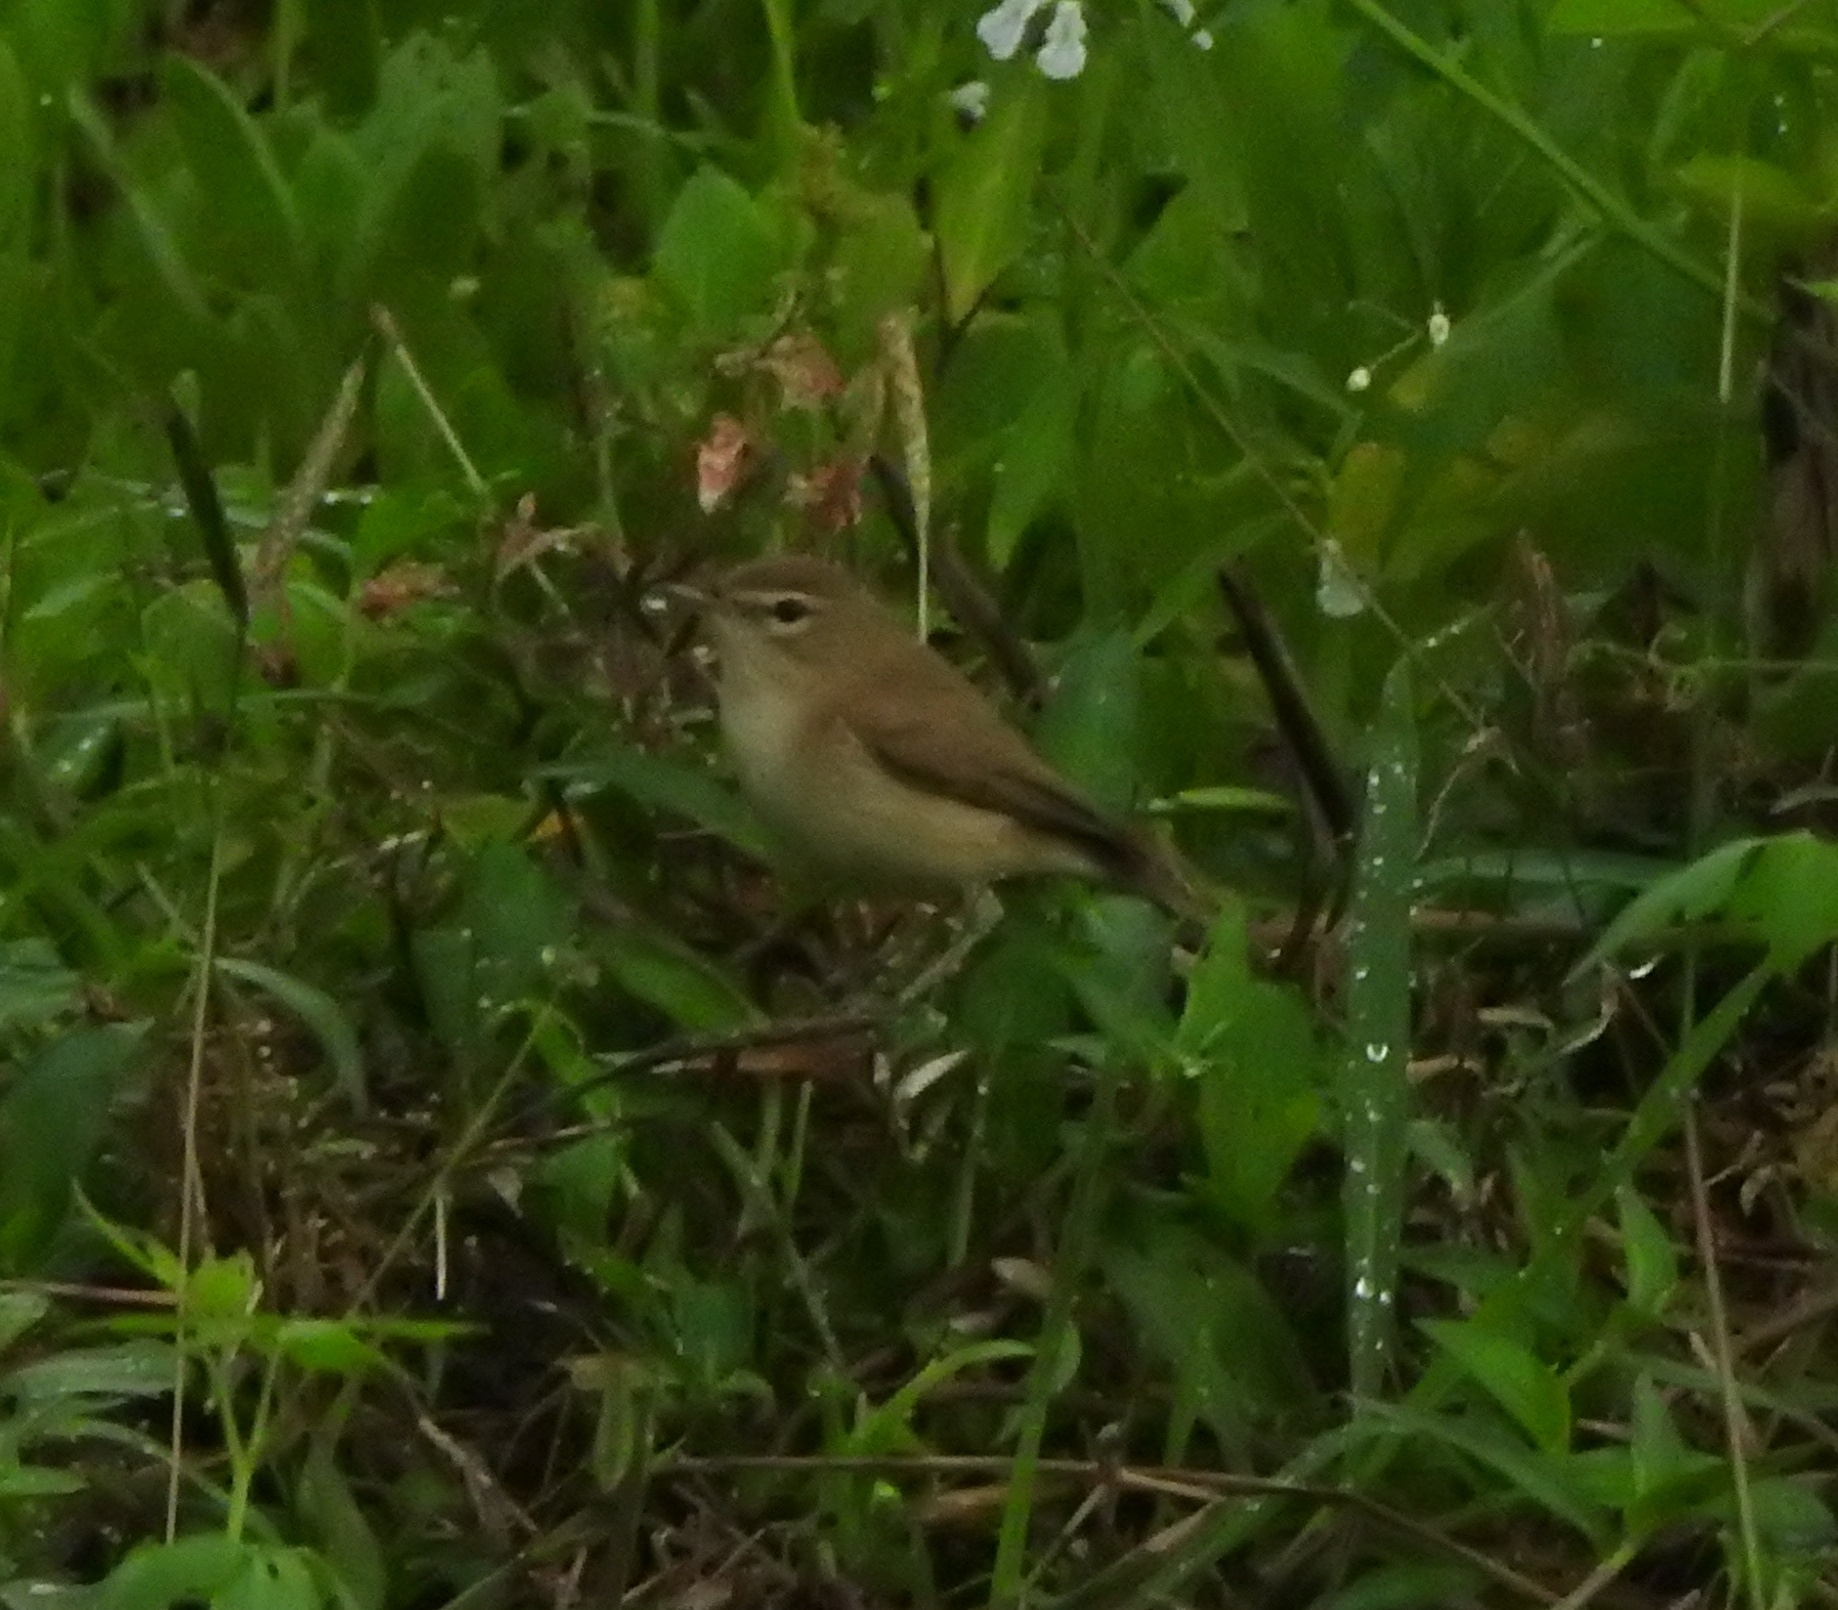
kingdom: Animalia
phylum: Chordata
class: Aves
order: Passeriformes
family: Acrocephalidae
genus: Iduna
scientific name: Iduna caligata
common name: Booted warbler
